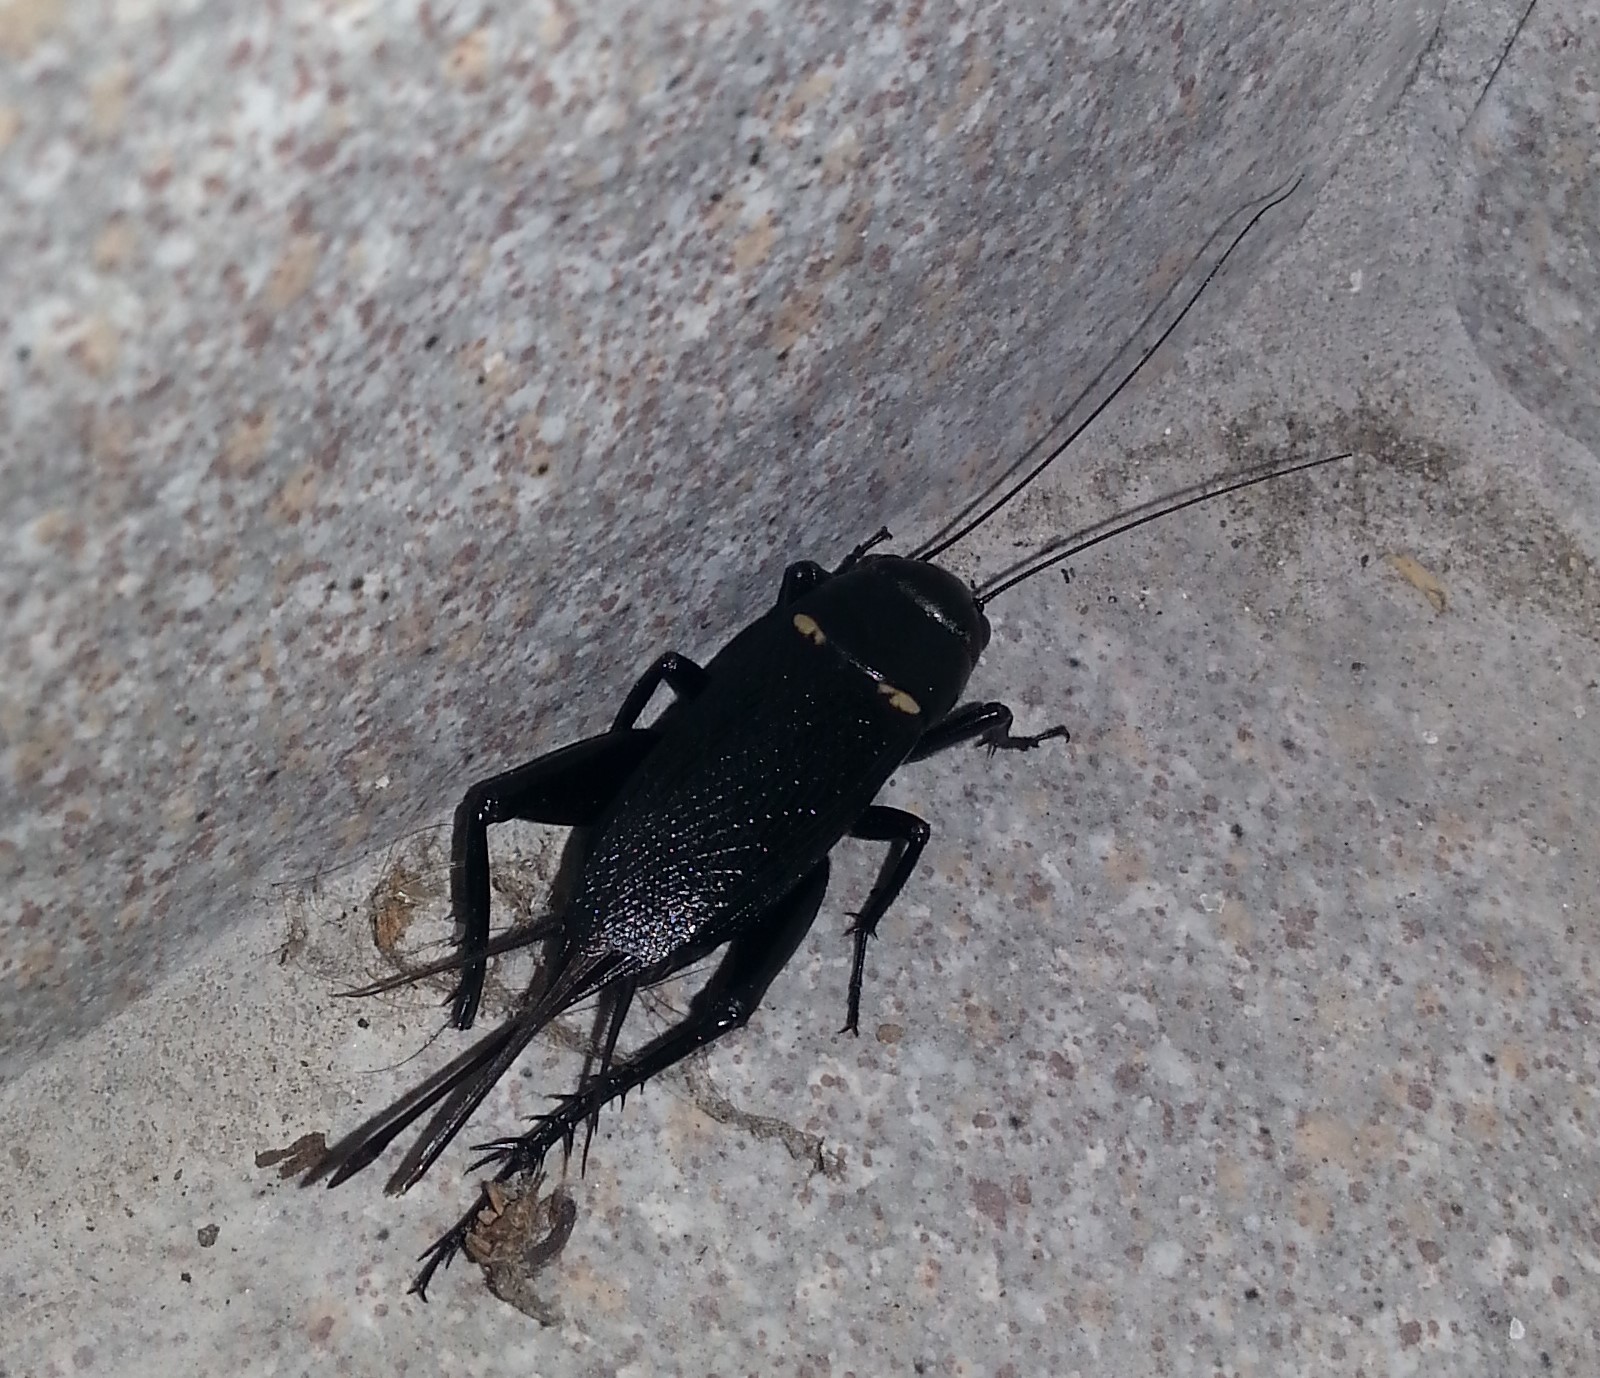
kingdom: Animalia
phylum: Arthropoda
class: Insecta
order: Orthoptera
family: Gryllidae
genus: Gryllus
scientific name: Gryllus bimaculatus
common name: Two-spotted cricket
